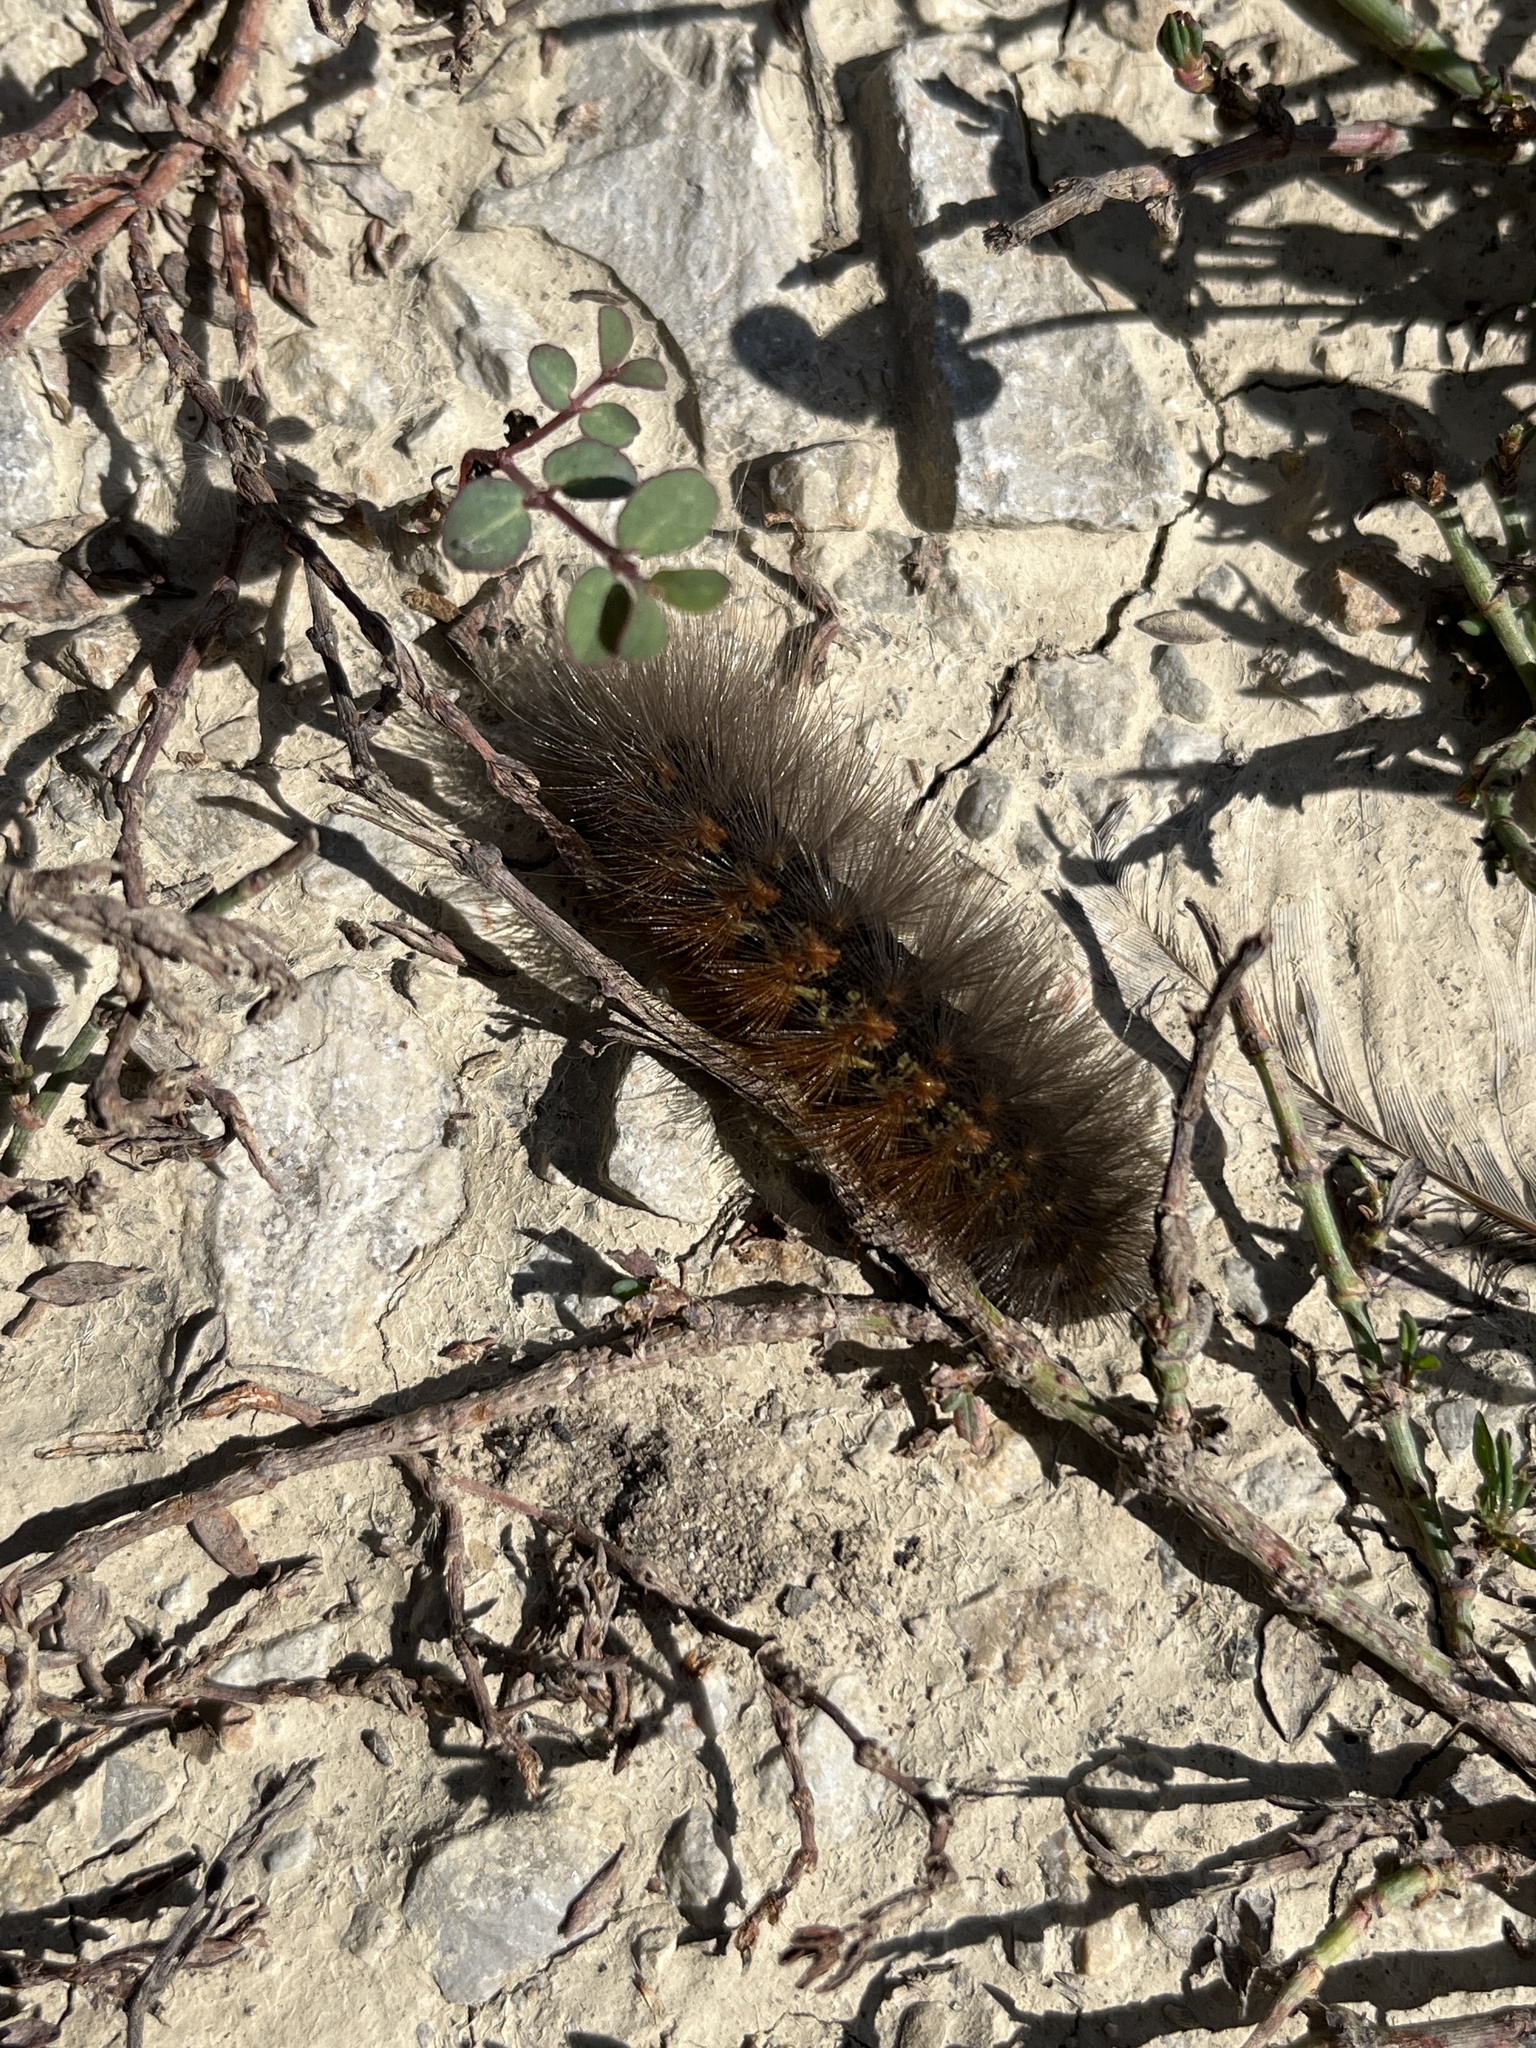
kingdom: Animalia
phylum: Arthropoda
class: Insecta
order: Lepidoptera
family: Erebidae
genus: Estigmene
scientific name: Estigmene acrea
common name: Salt marsh moth
